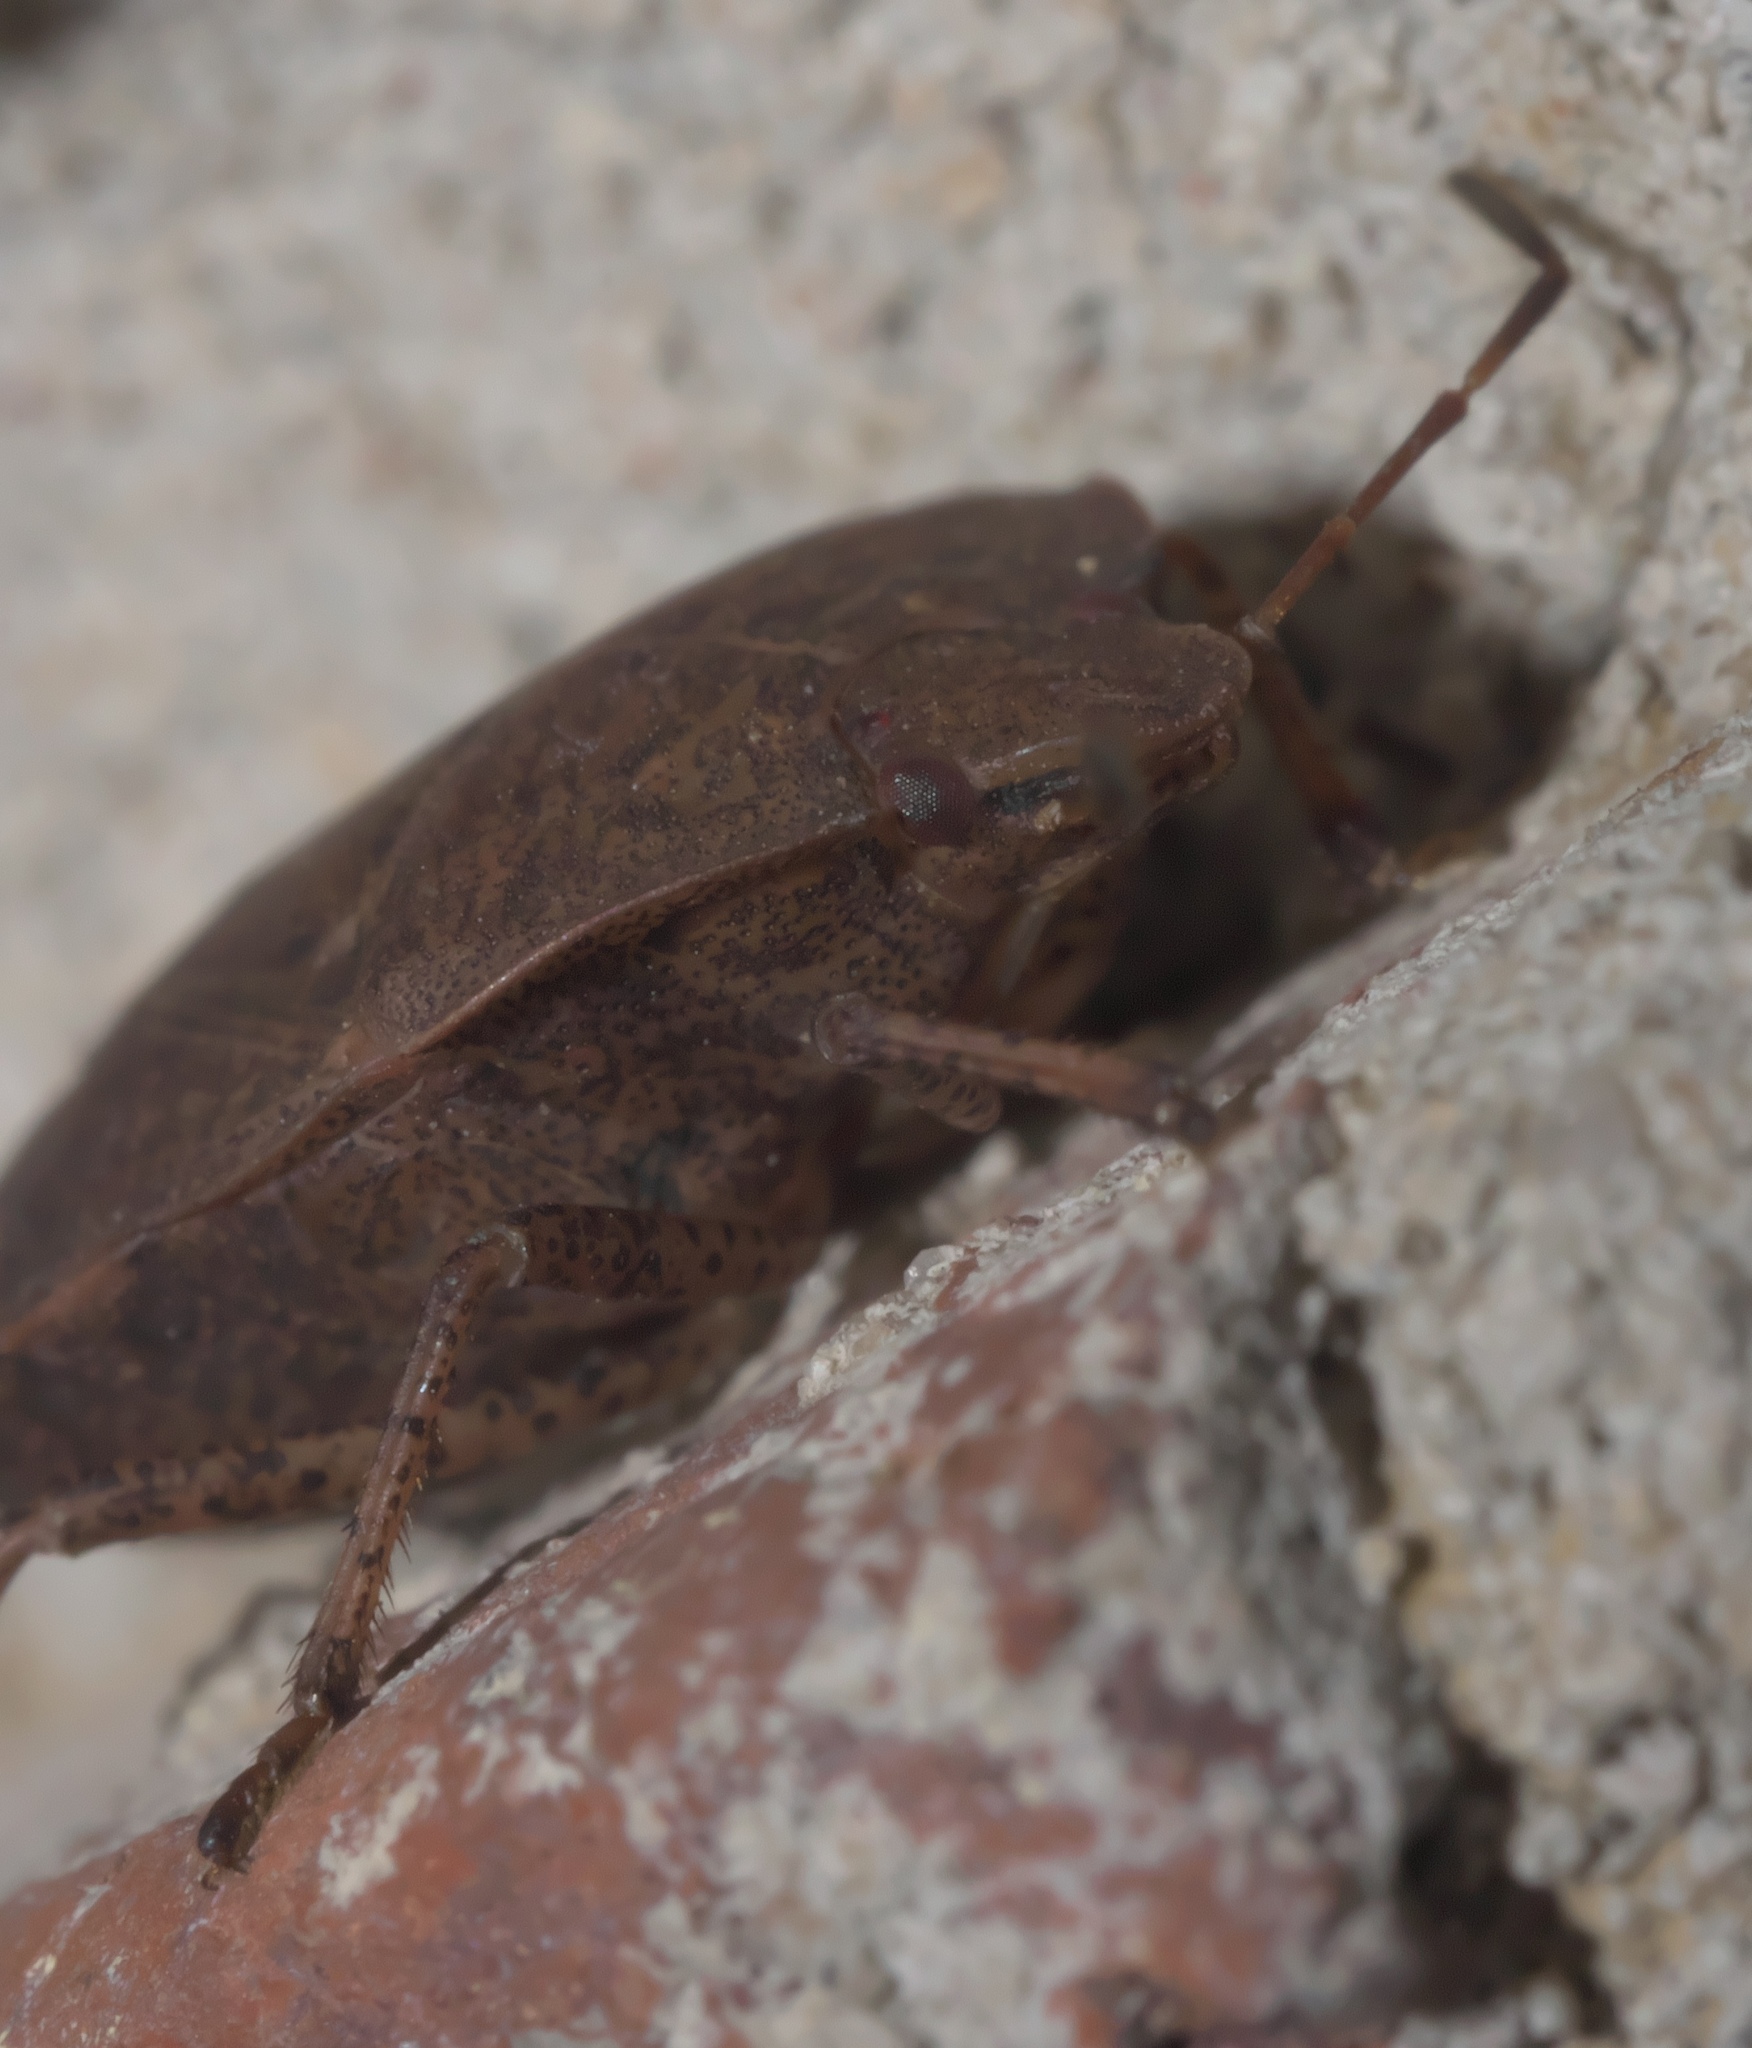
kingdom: Animalia
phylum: Arthropoda
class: Insecta
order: Hemiptera
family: Pentatomidae
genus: Menecles
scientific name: Menecles insertus
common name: Elf shoe stink bug
